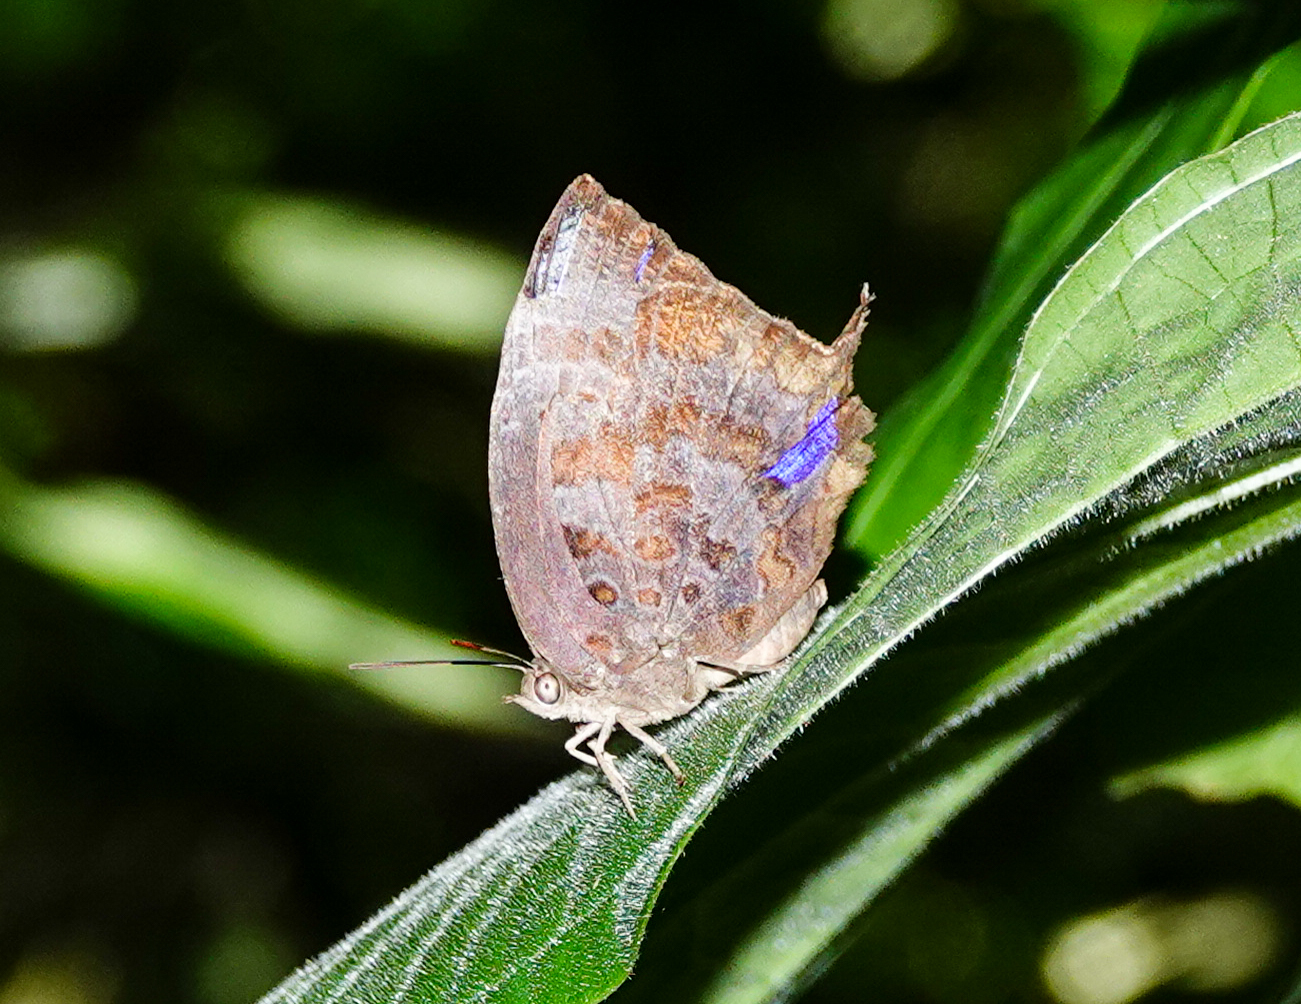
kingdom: Animalia
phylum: Arthropoda
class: Insecta
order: Lepidoptera
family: Lycaenidae
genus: Arhopala
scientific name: Arhopala centaurus
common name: Dull oak-blue
